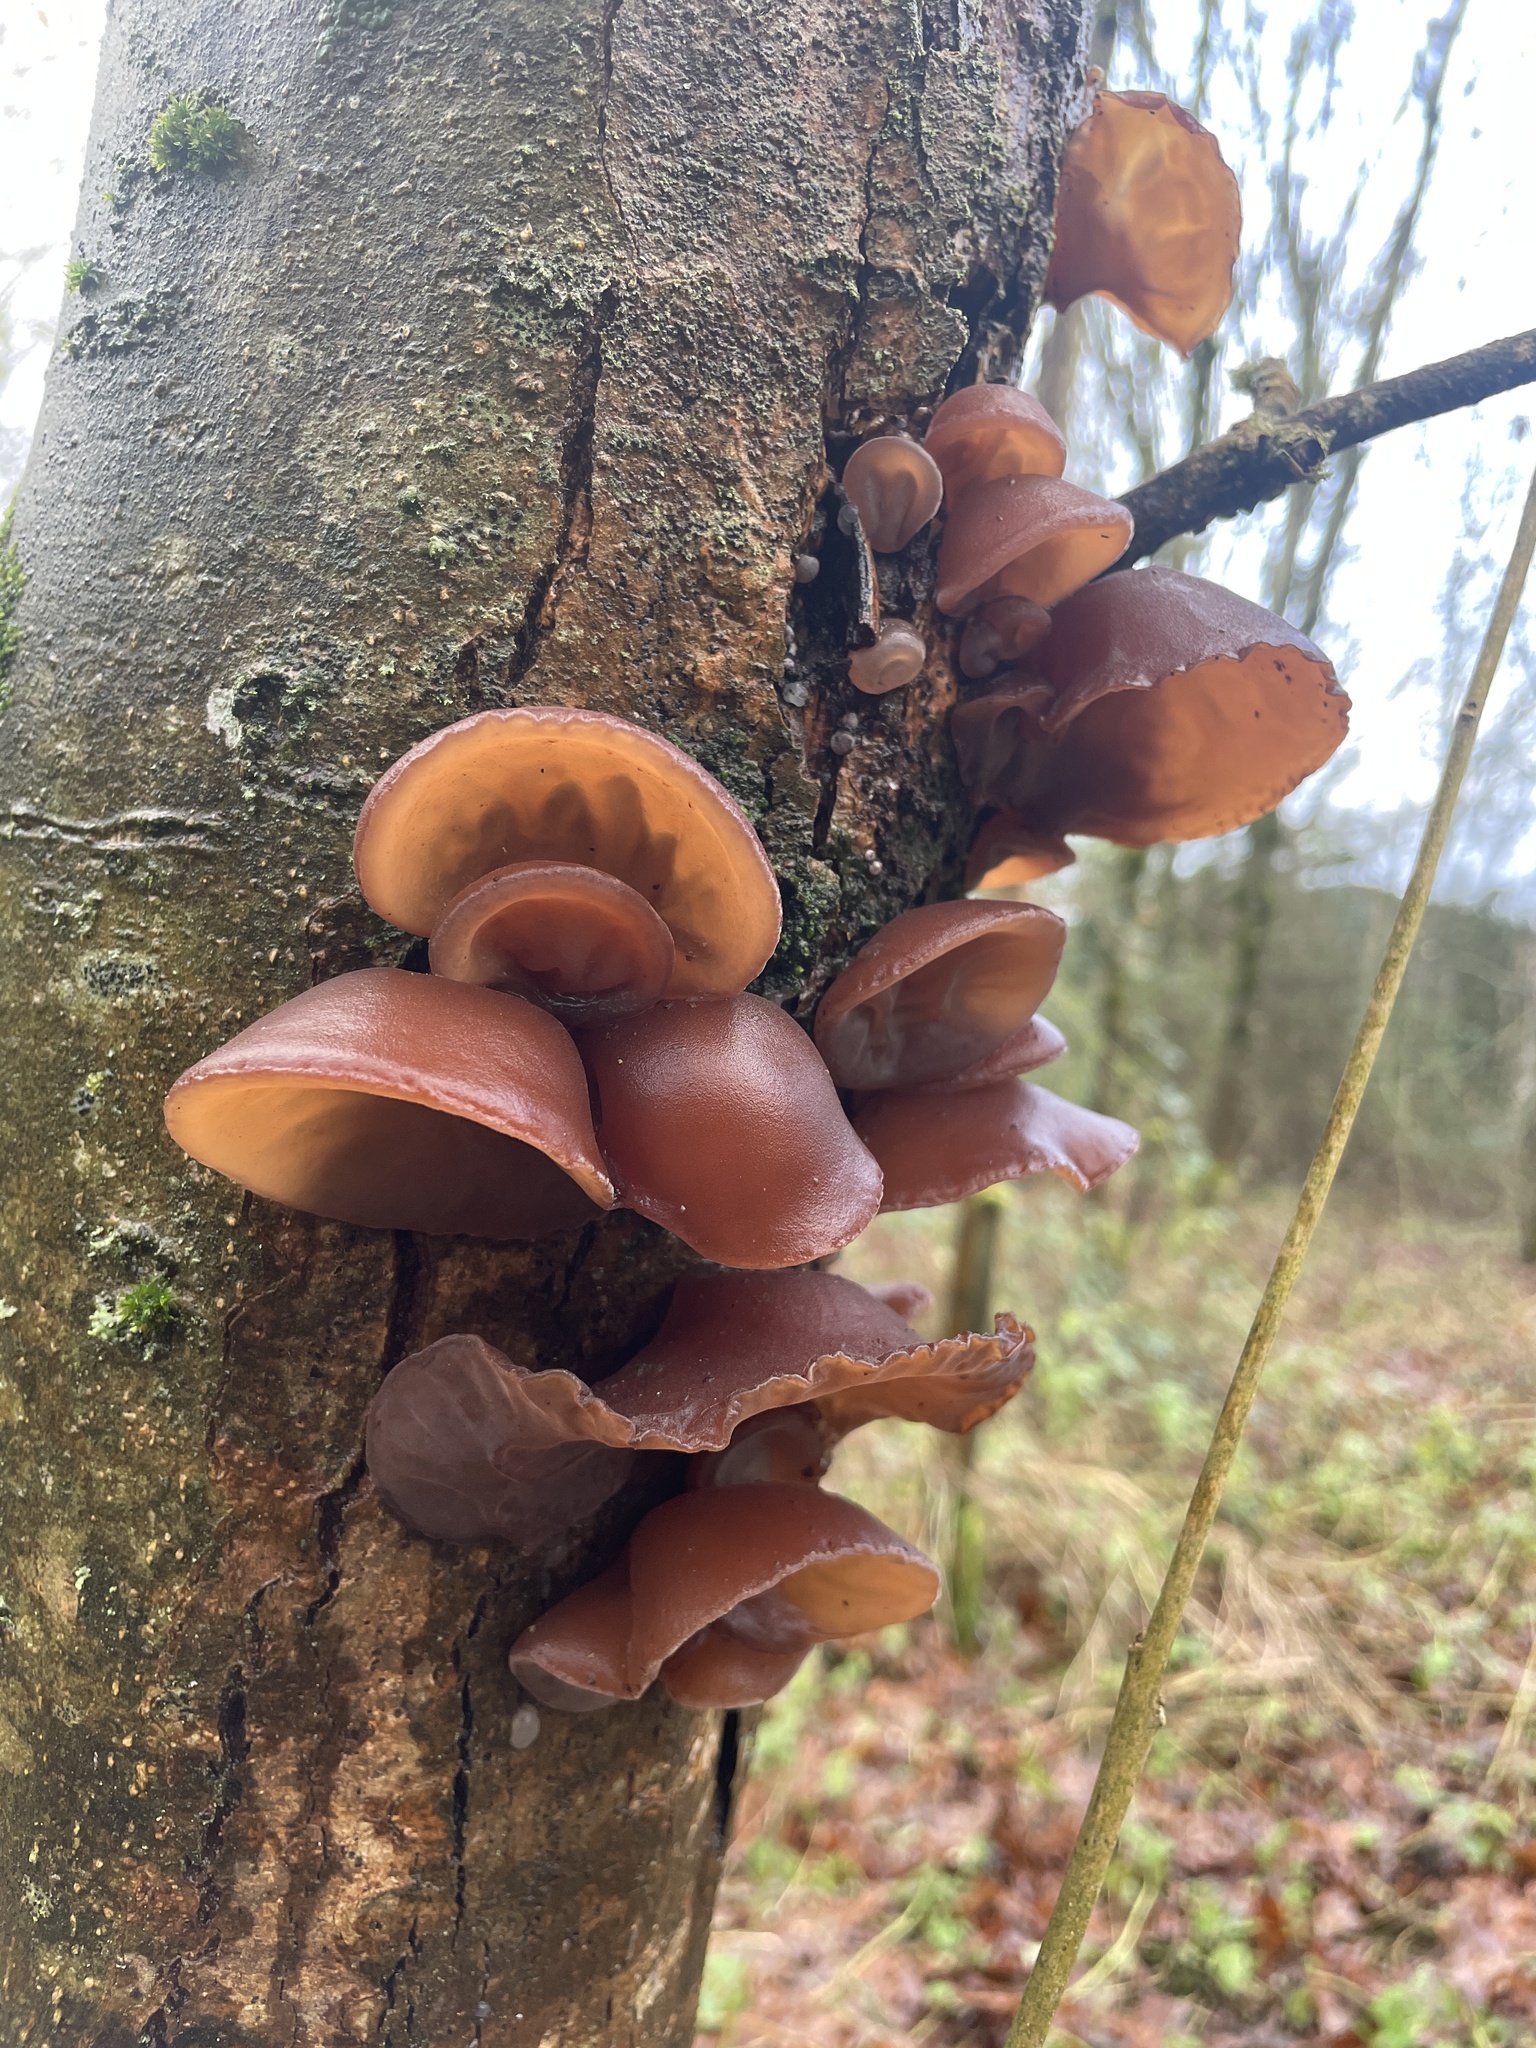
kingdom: Fungi
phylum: Basidiomycota
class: Agaricomycetes
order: Auriculariales
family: Auriculariaceae
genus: Auricularia
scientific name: Auricularia auricula-judae
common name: Jelly ear
